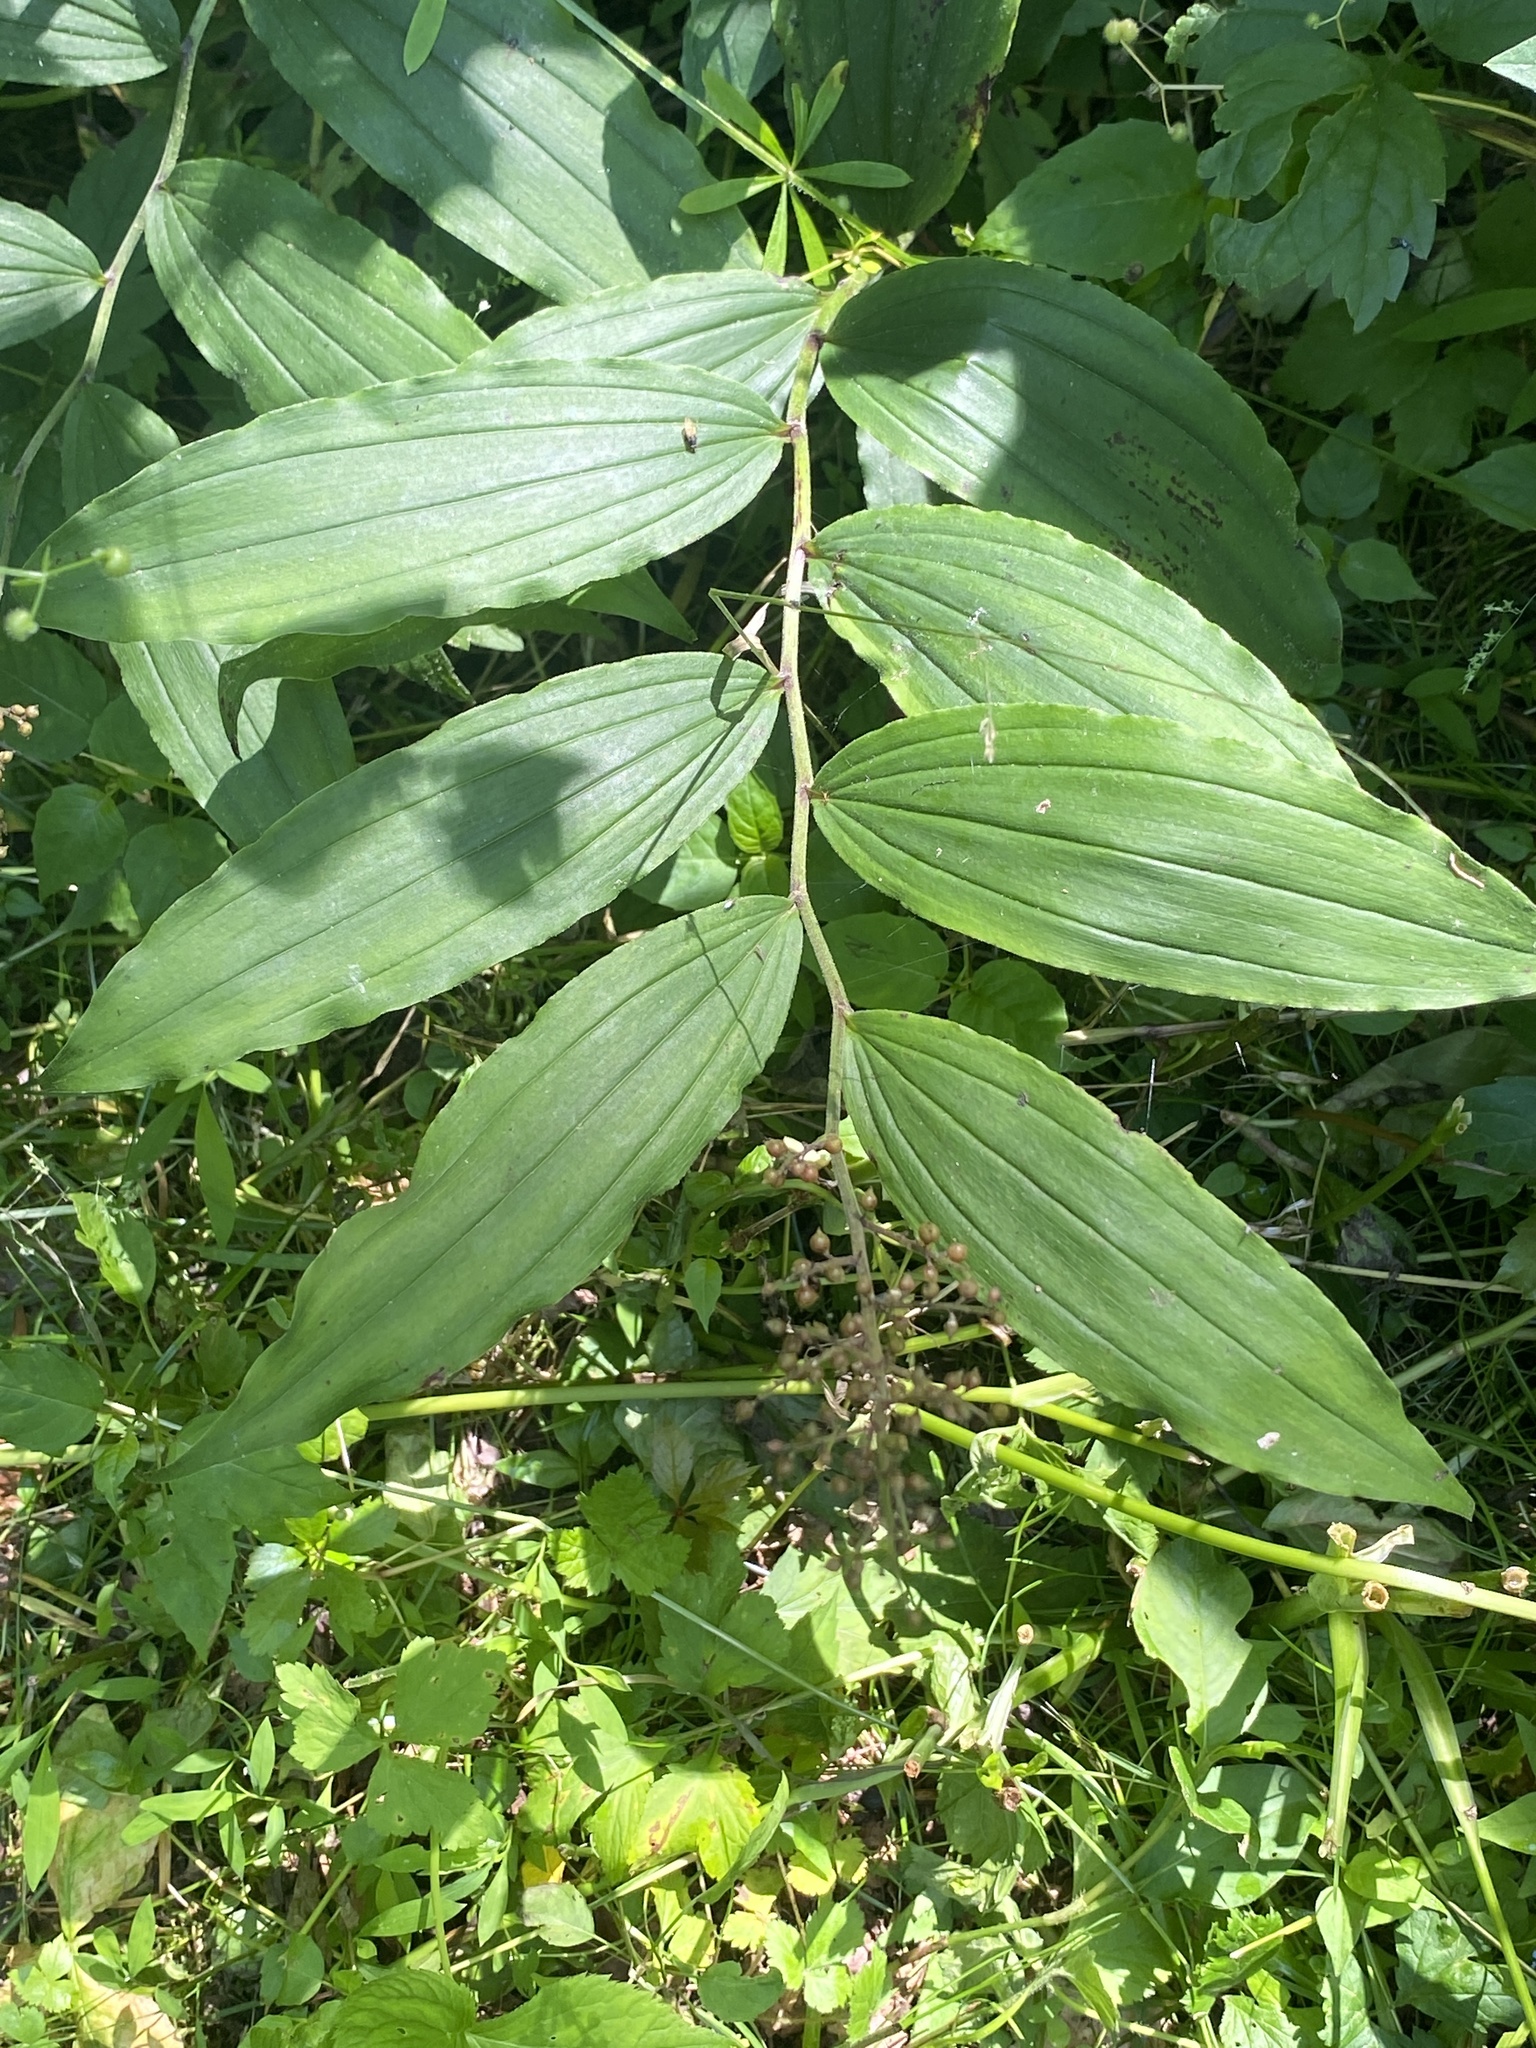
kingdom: Plantae
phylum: Tracheophyta
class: Liliopsida
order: Asparagales
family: Asparagaceae
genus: Maianthemum
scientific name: Maianthemum racemosum
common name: False spikenard
